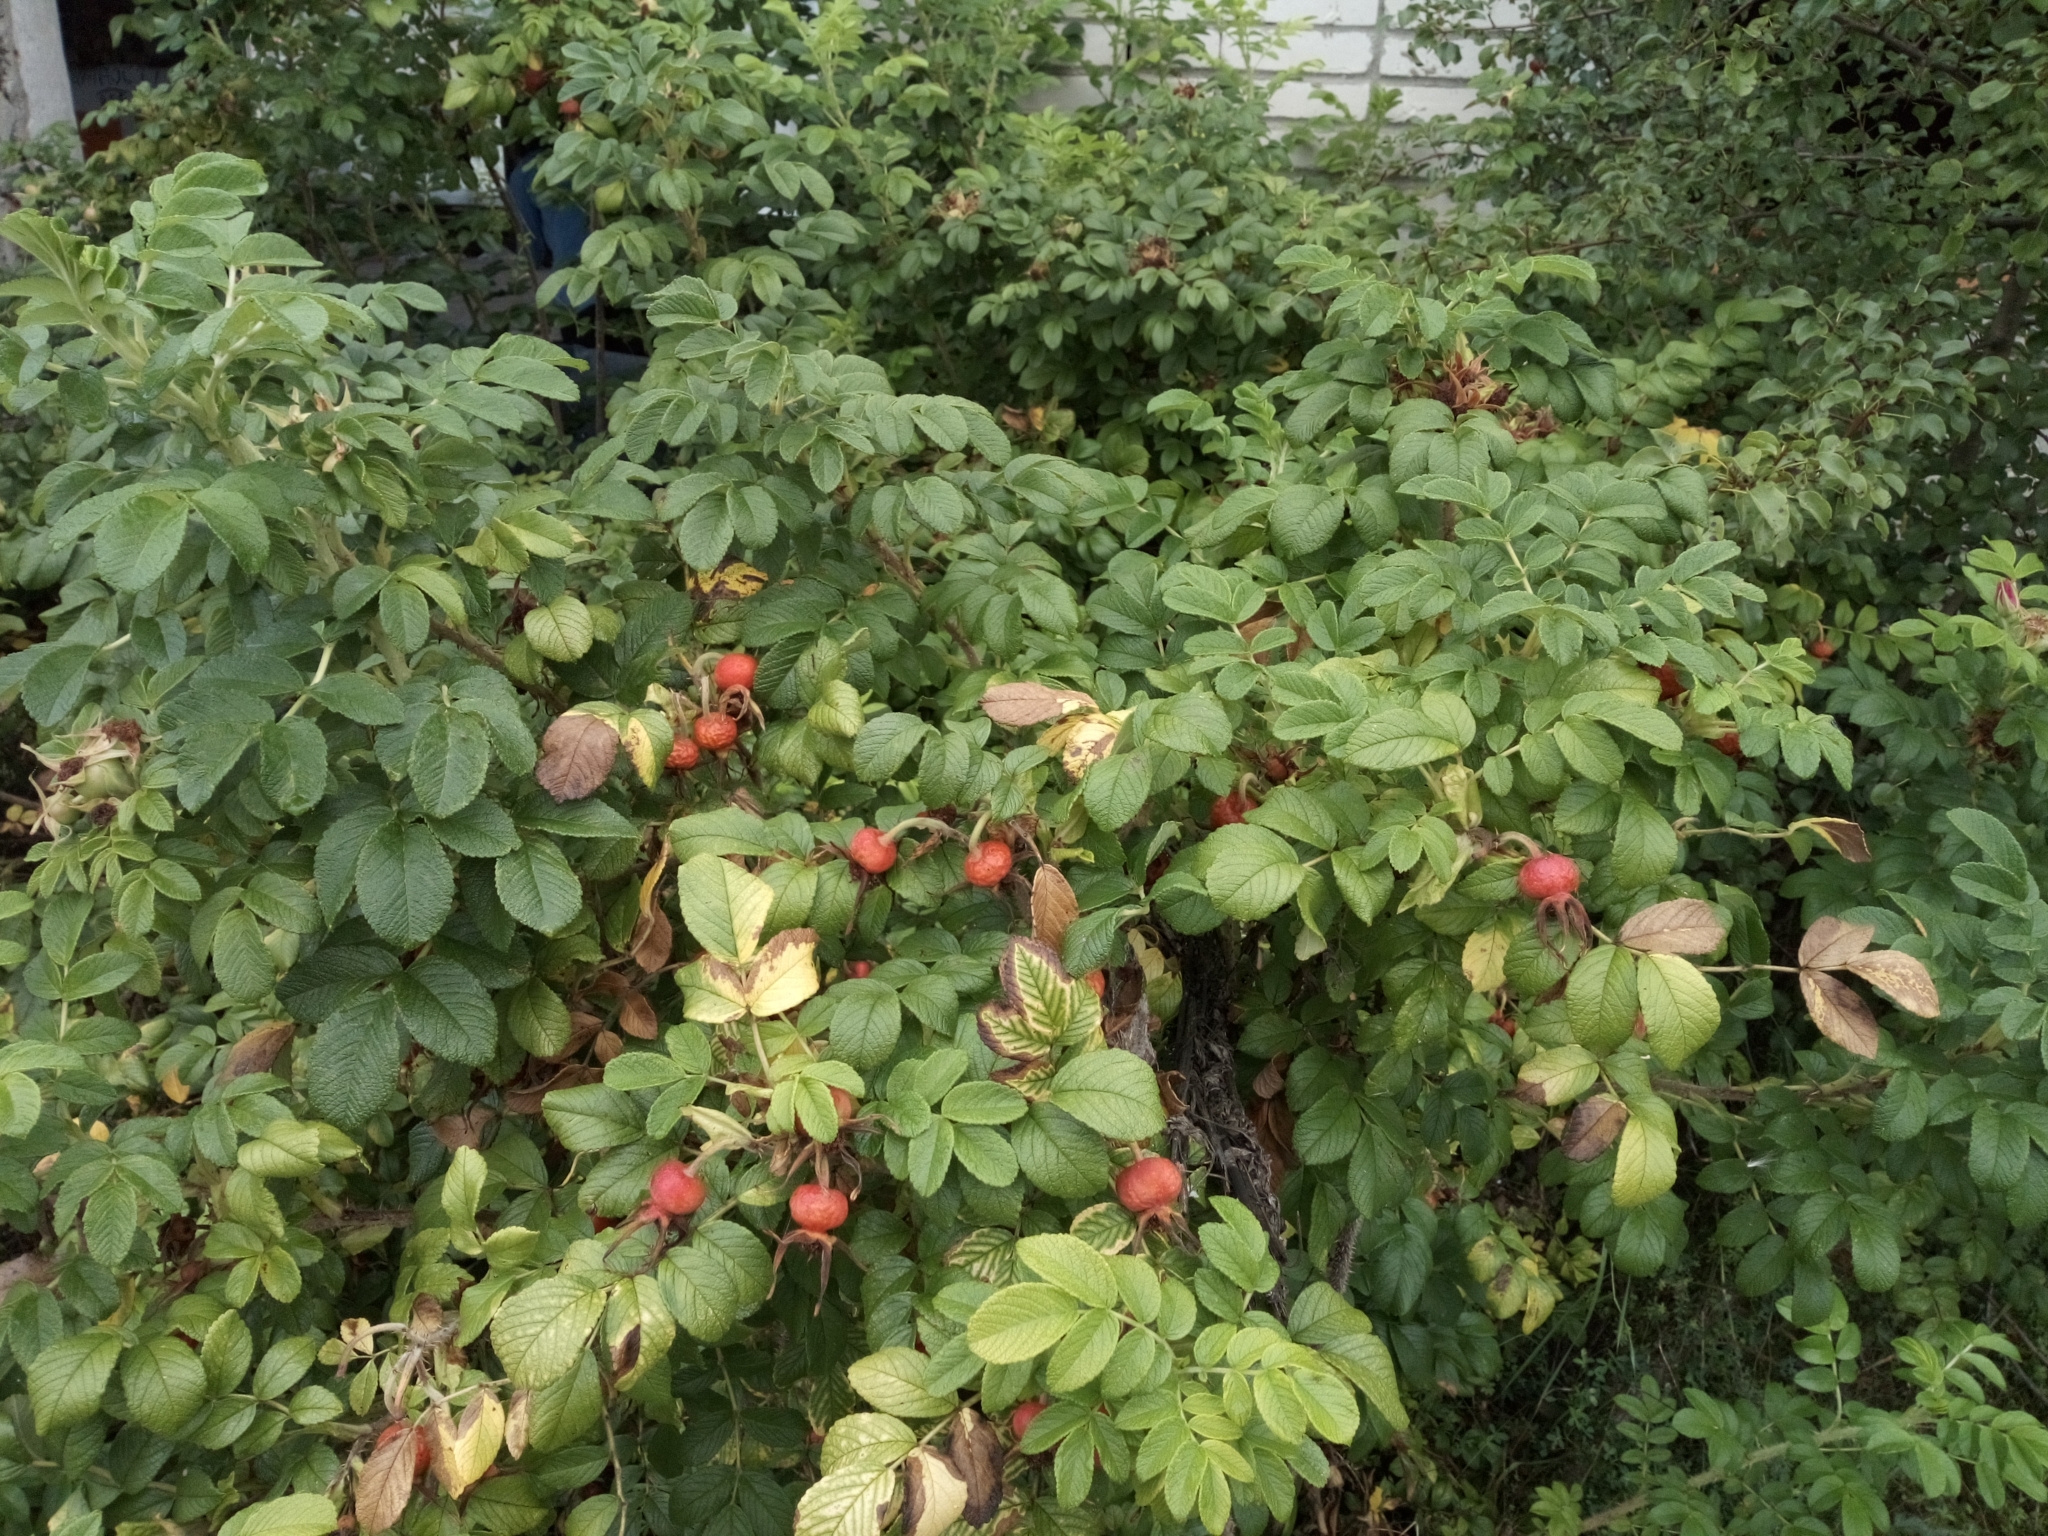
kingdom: Plantae
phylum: Tracheophyta
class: Magnoliopsida
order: Rosales
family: Rosaceae
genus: Rosa
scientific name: Rosa rugosa
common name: Japanese rose
